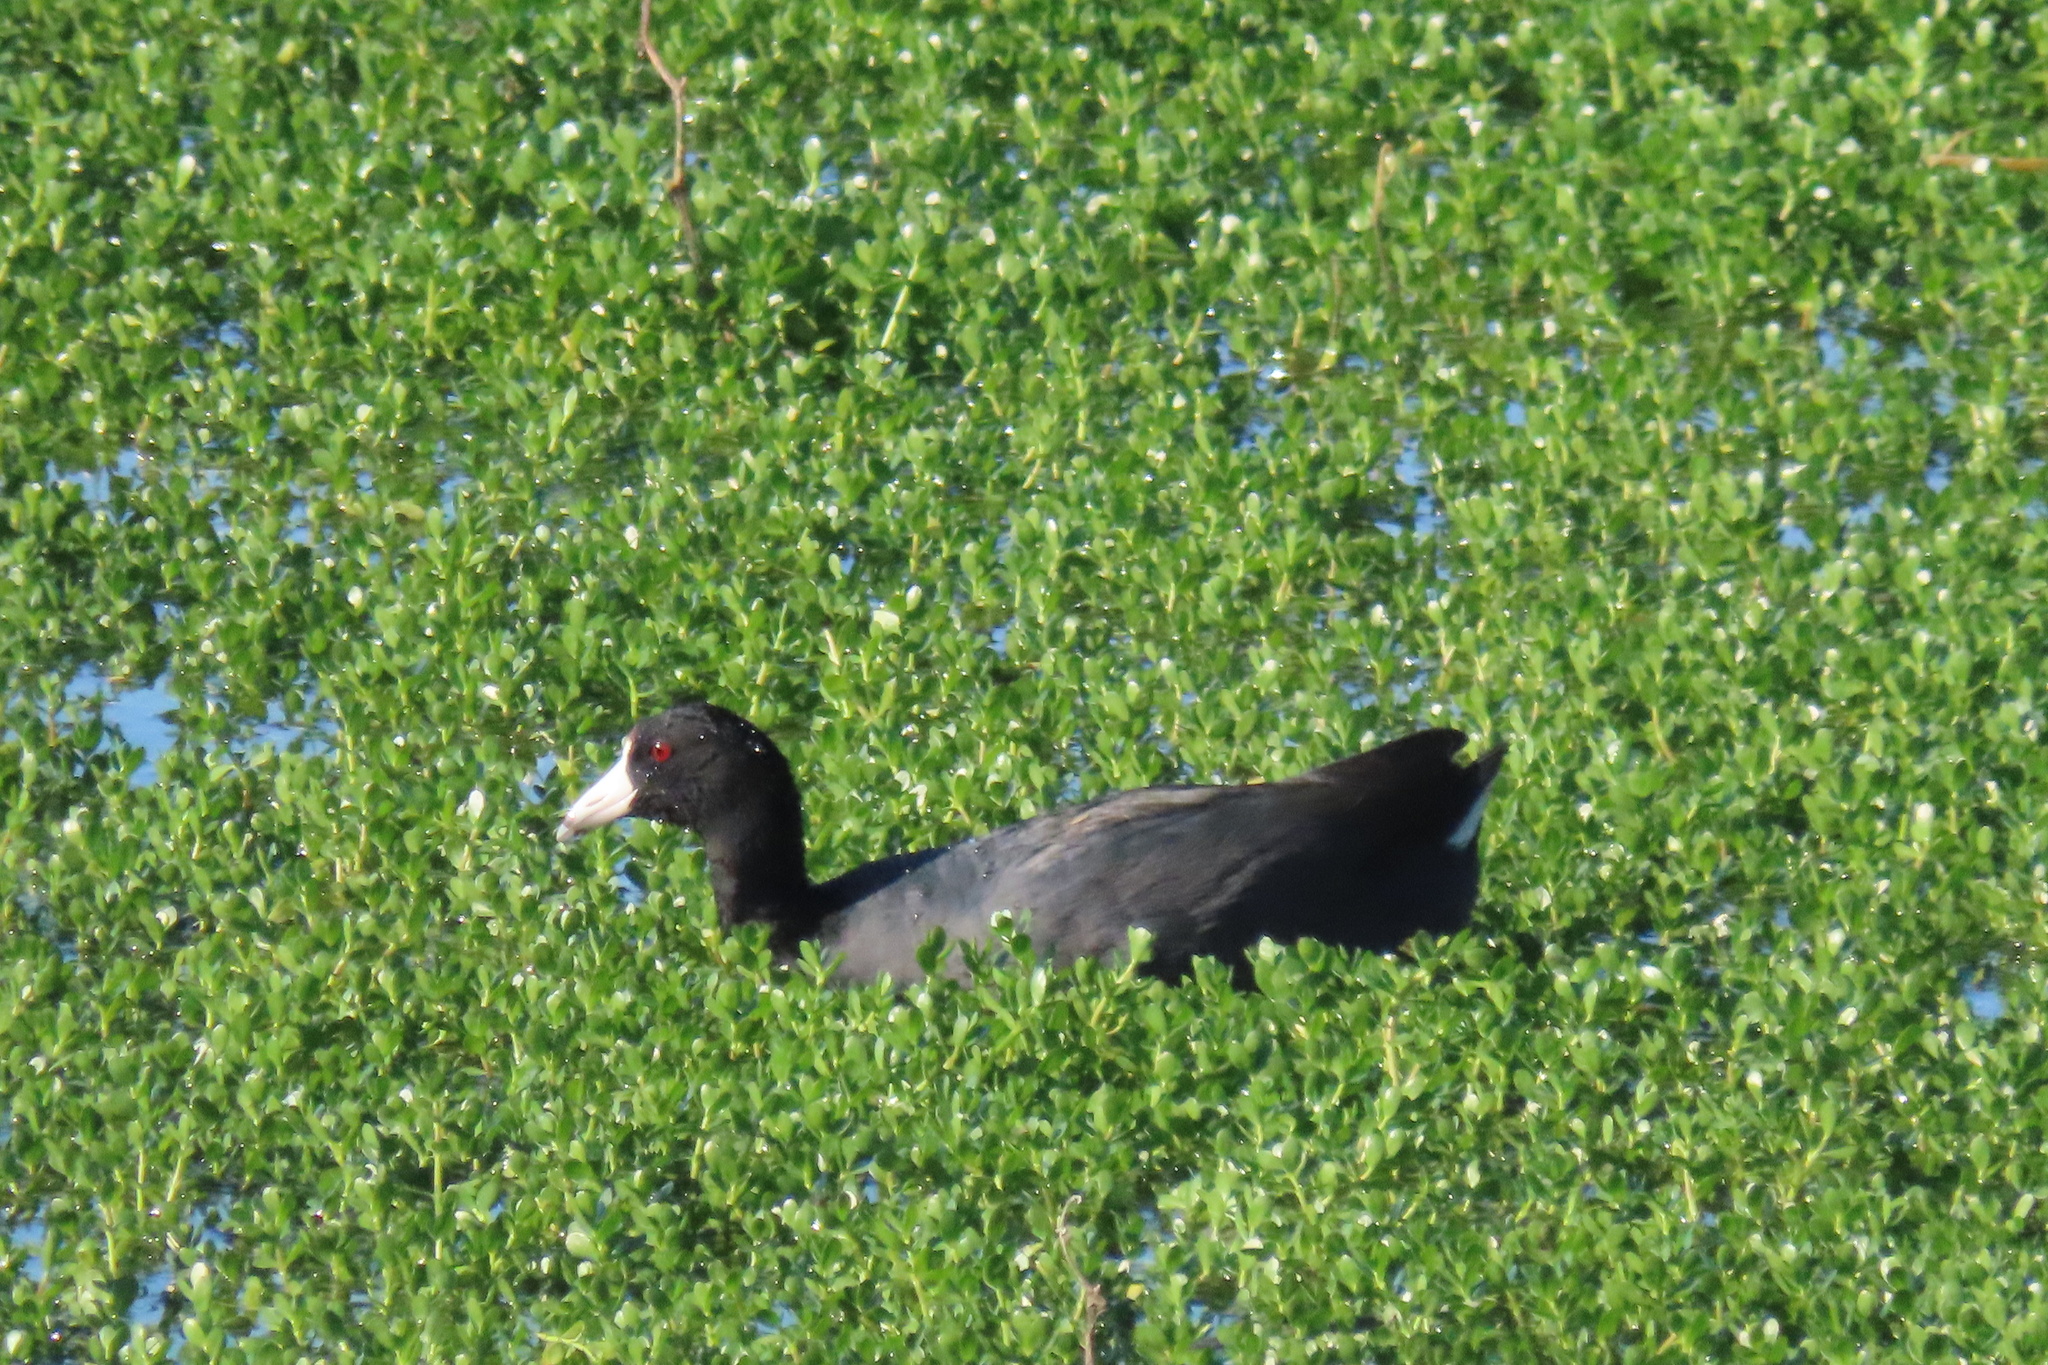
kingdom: Animalia
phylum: Chordata
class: Aves
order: Gruiformes
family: Rallidae
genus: Fulica
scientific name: Fulica americana
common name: American coot
